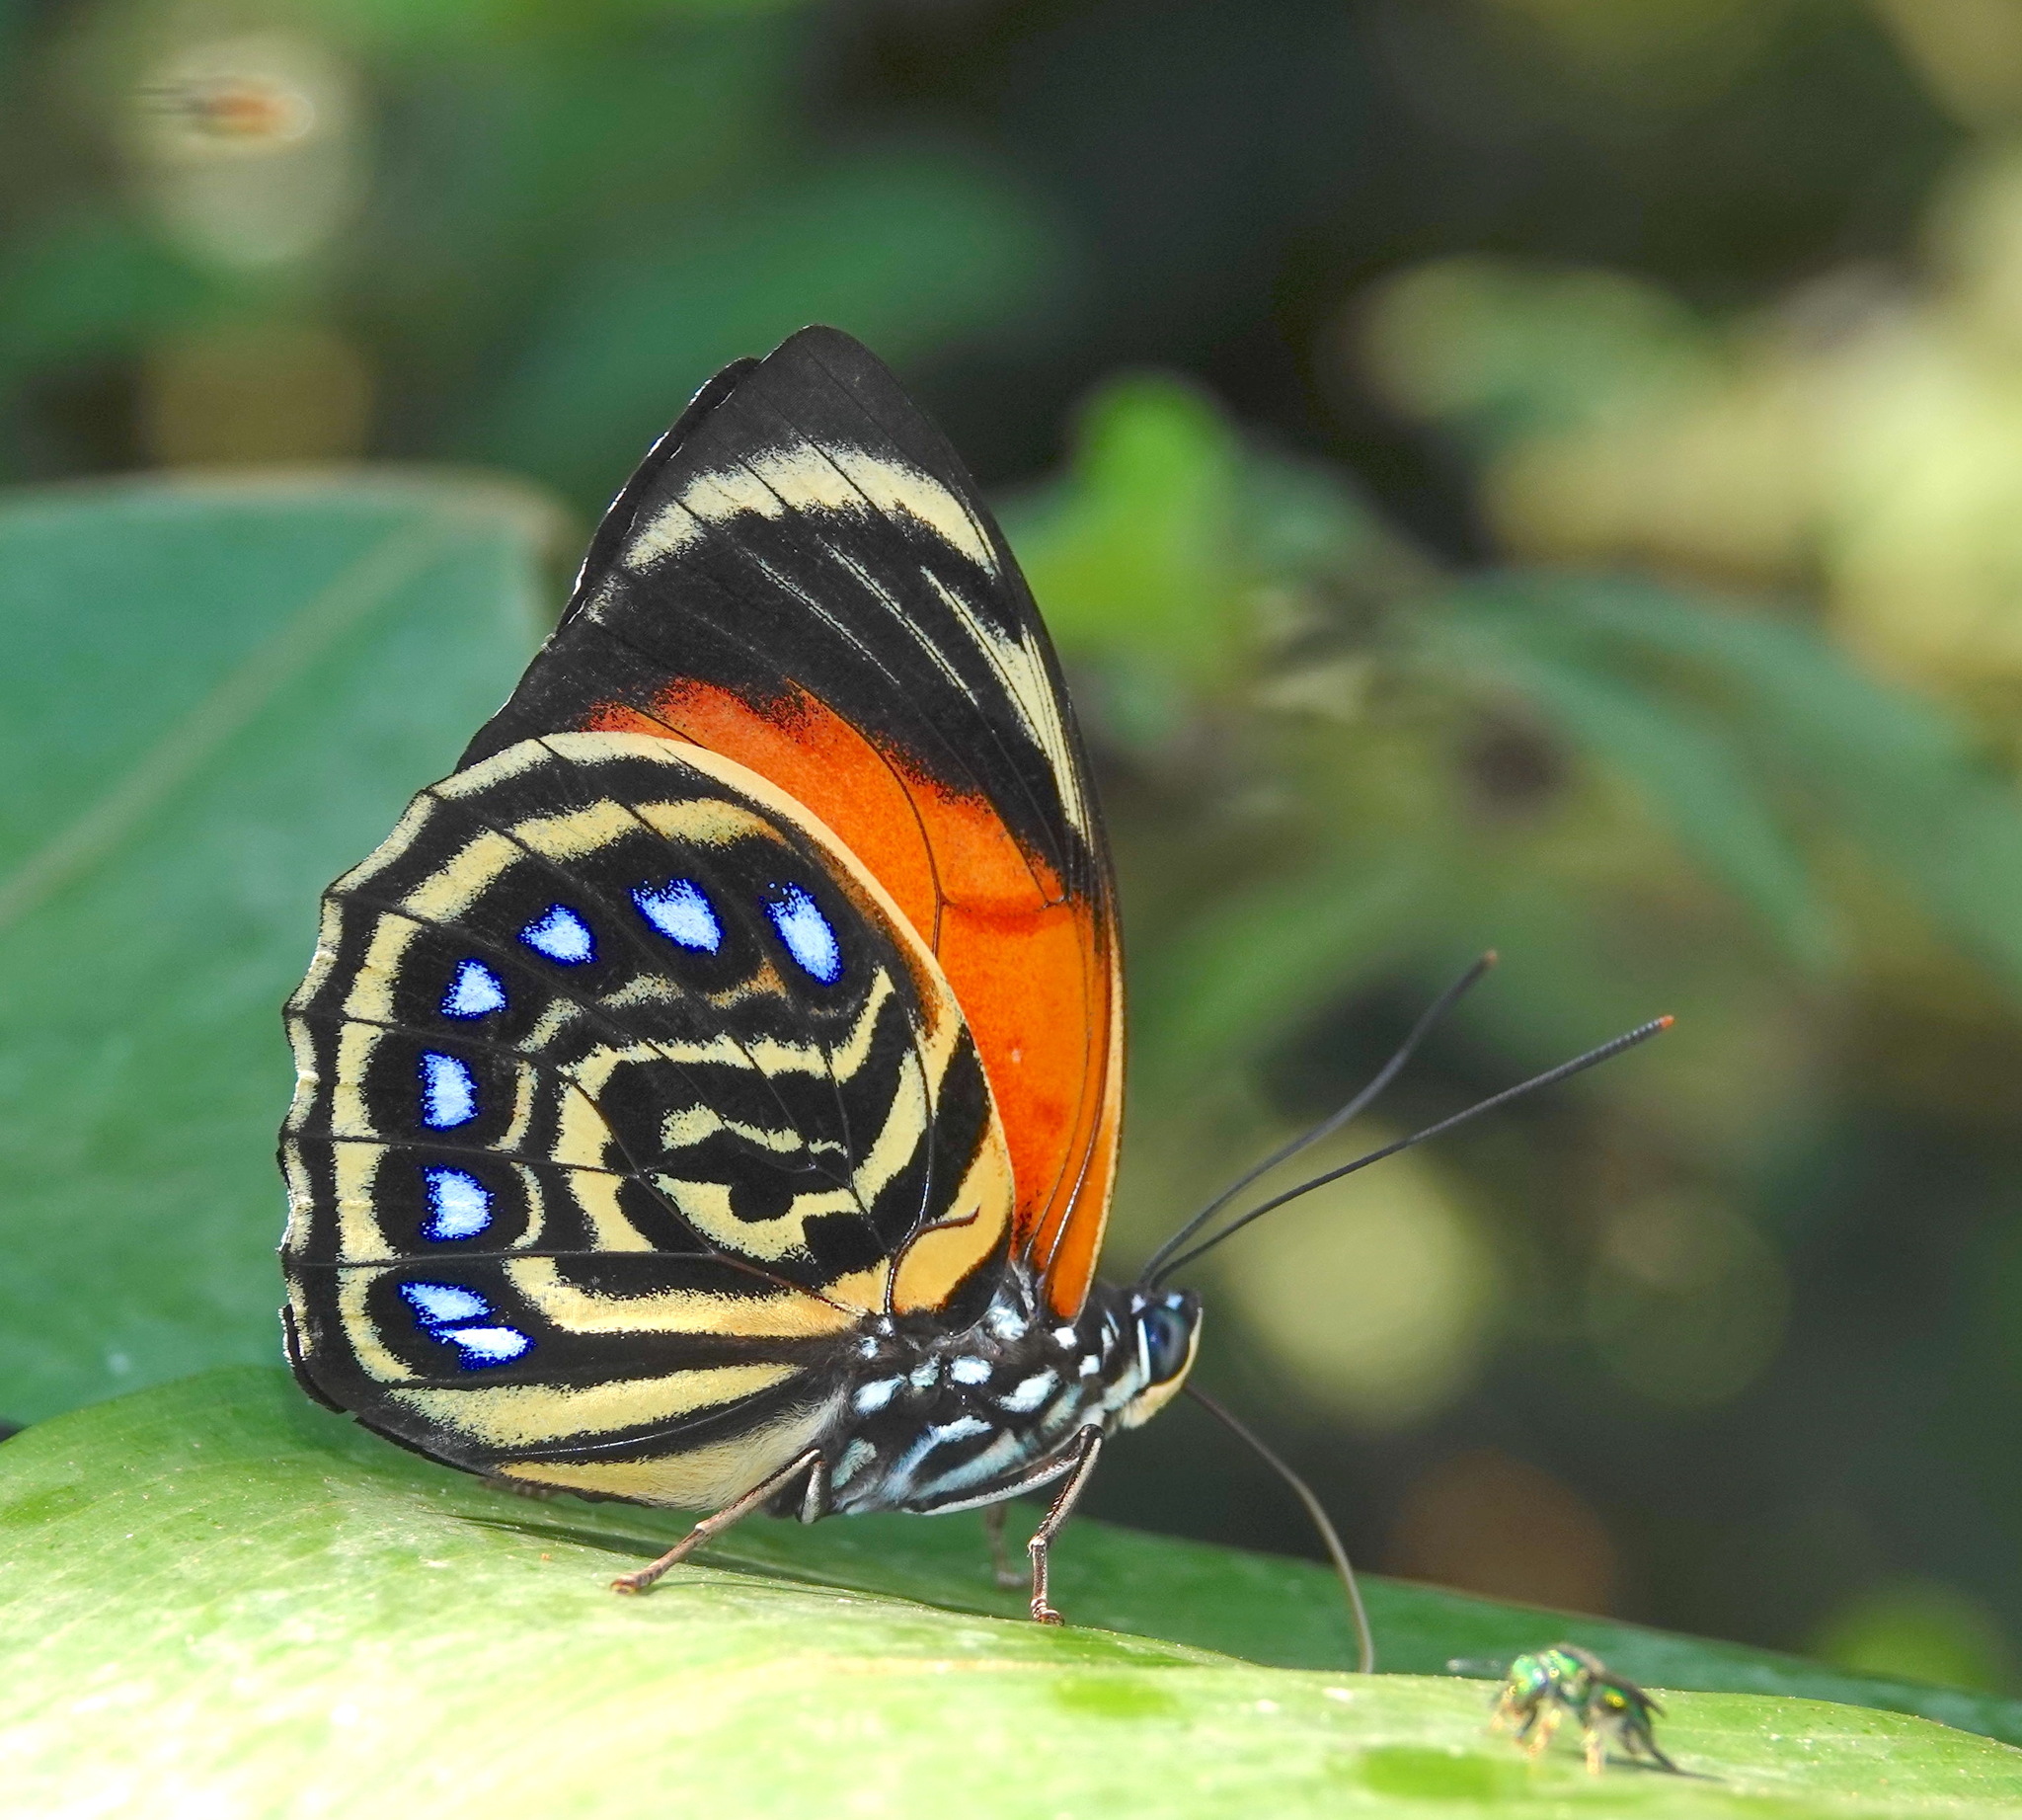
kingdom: Animalia
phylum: Arthropoda
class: Insecta
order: Lepidoptera
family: Nymphalidae
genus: Prepona
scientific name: Prepona amydon
